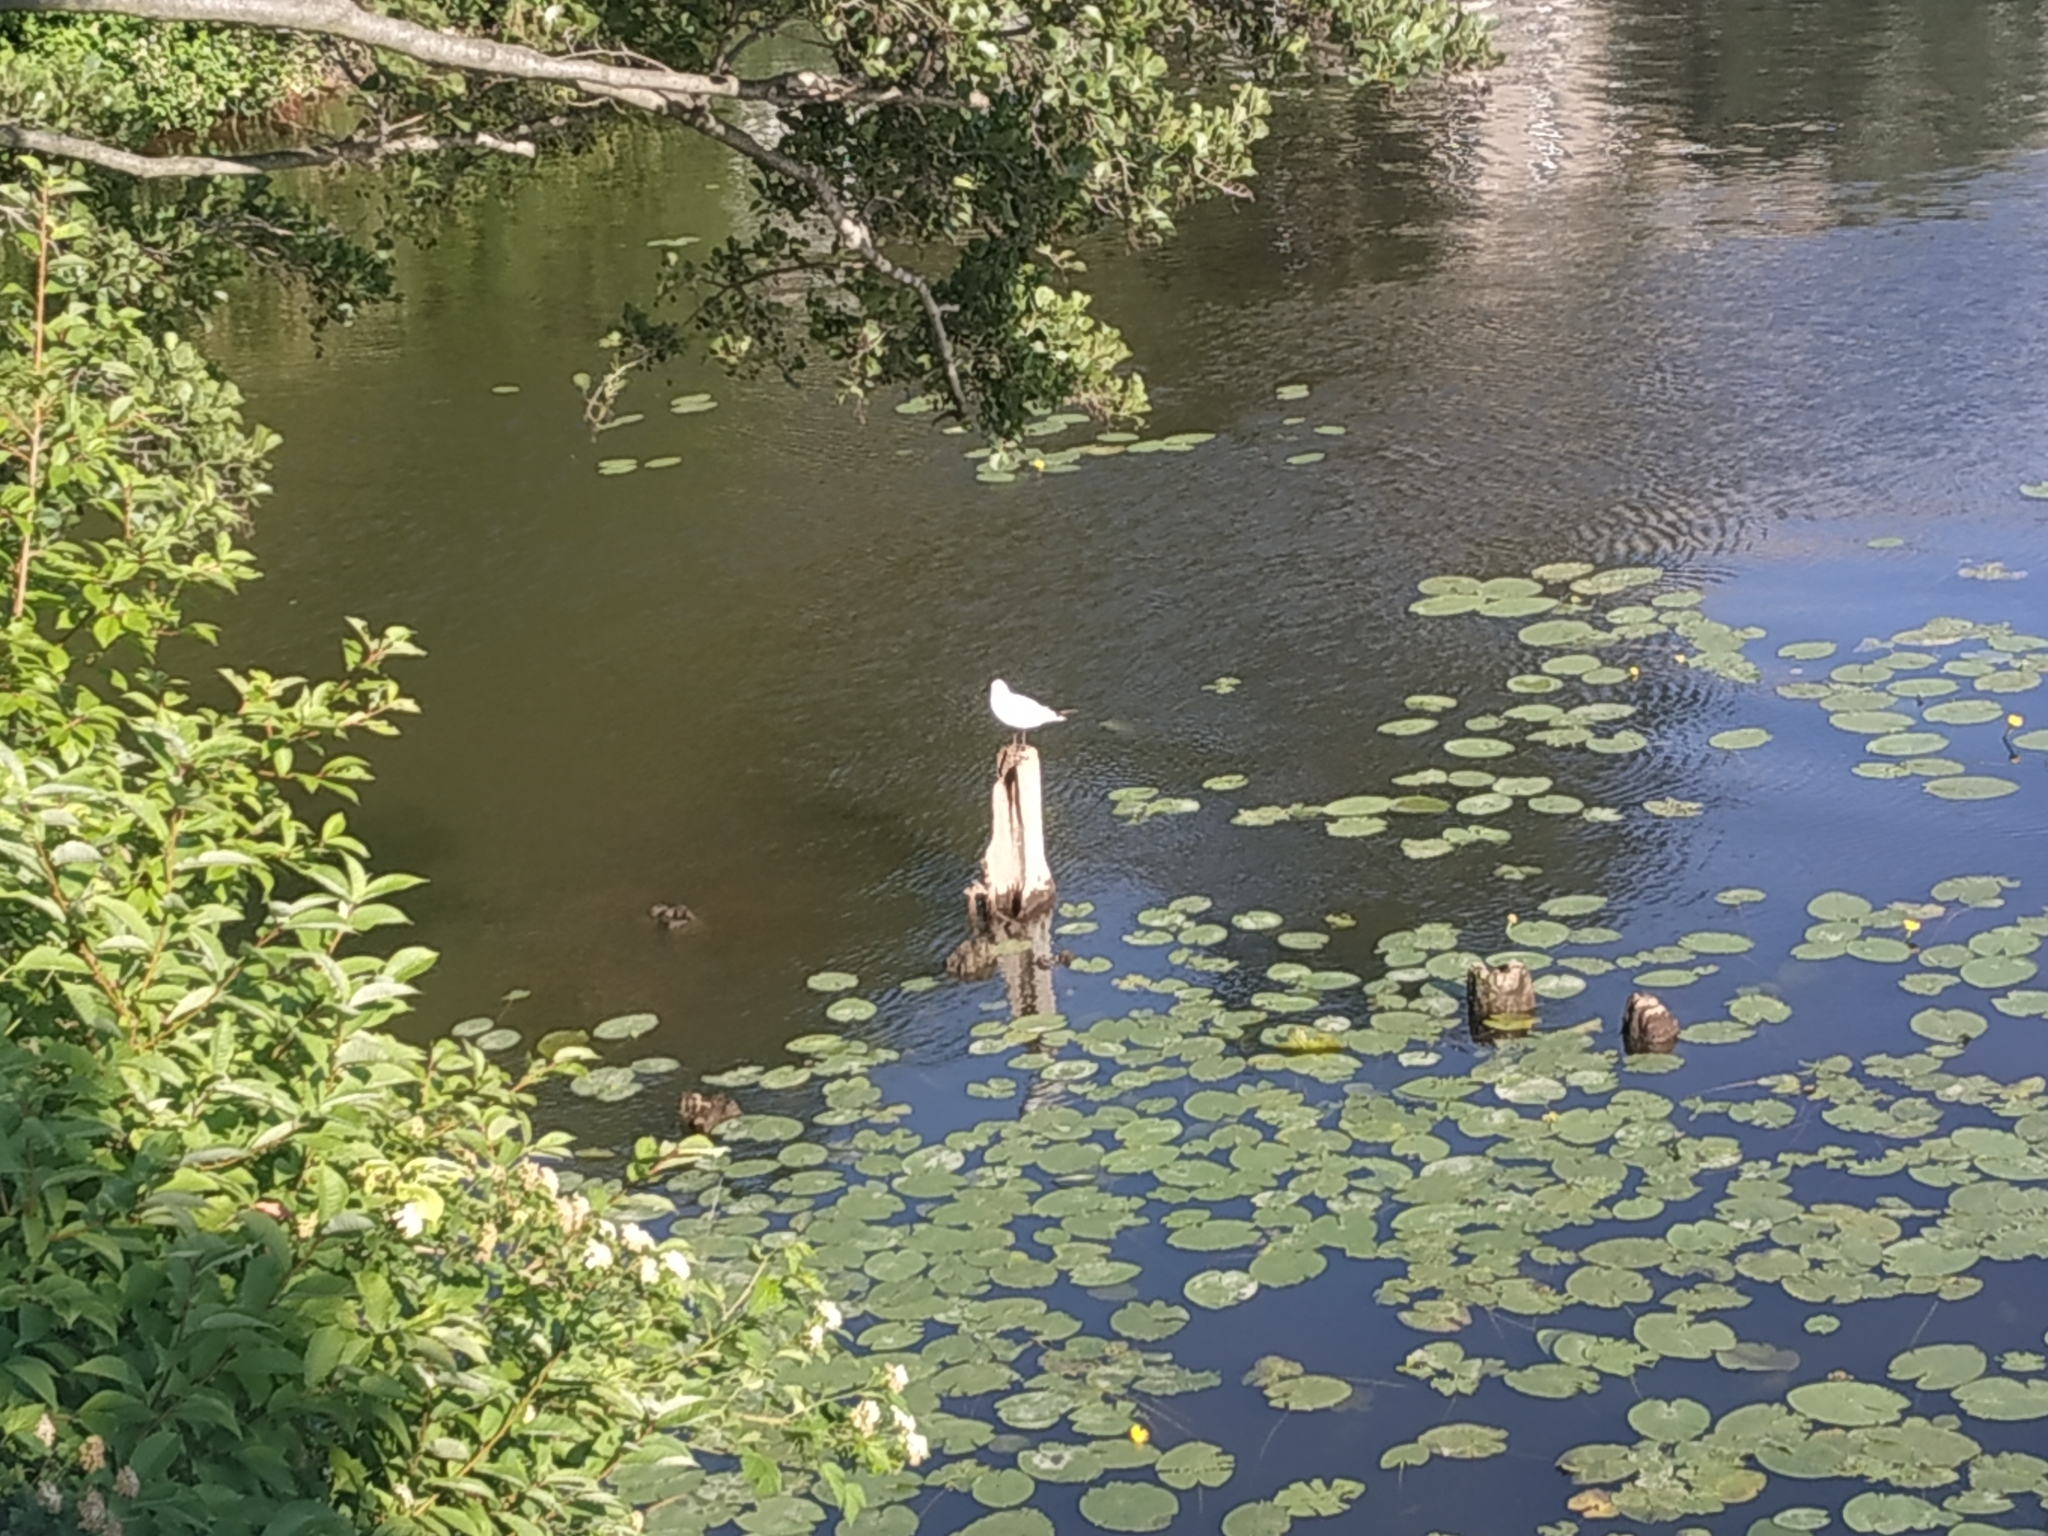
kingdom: Animalia
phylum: Chordata
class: Aves
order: Charadriiformes
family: Laridae
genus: Chroicocephalus
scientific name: Chroicocephalus ridibundus
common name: Black-headed gull
